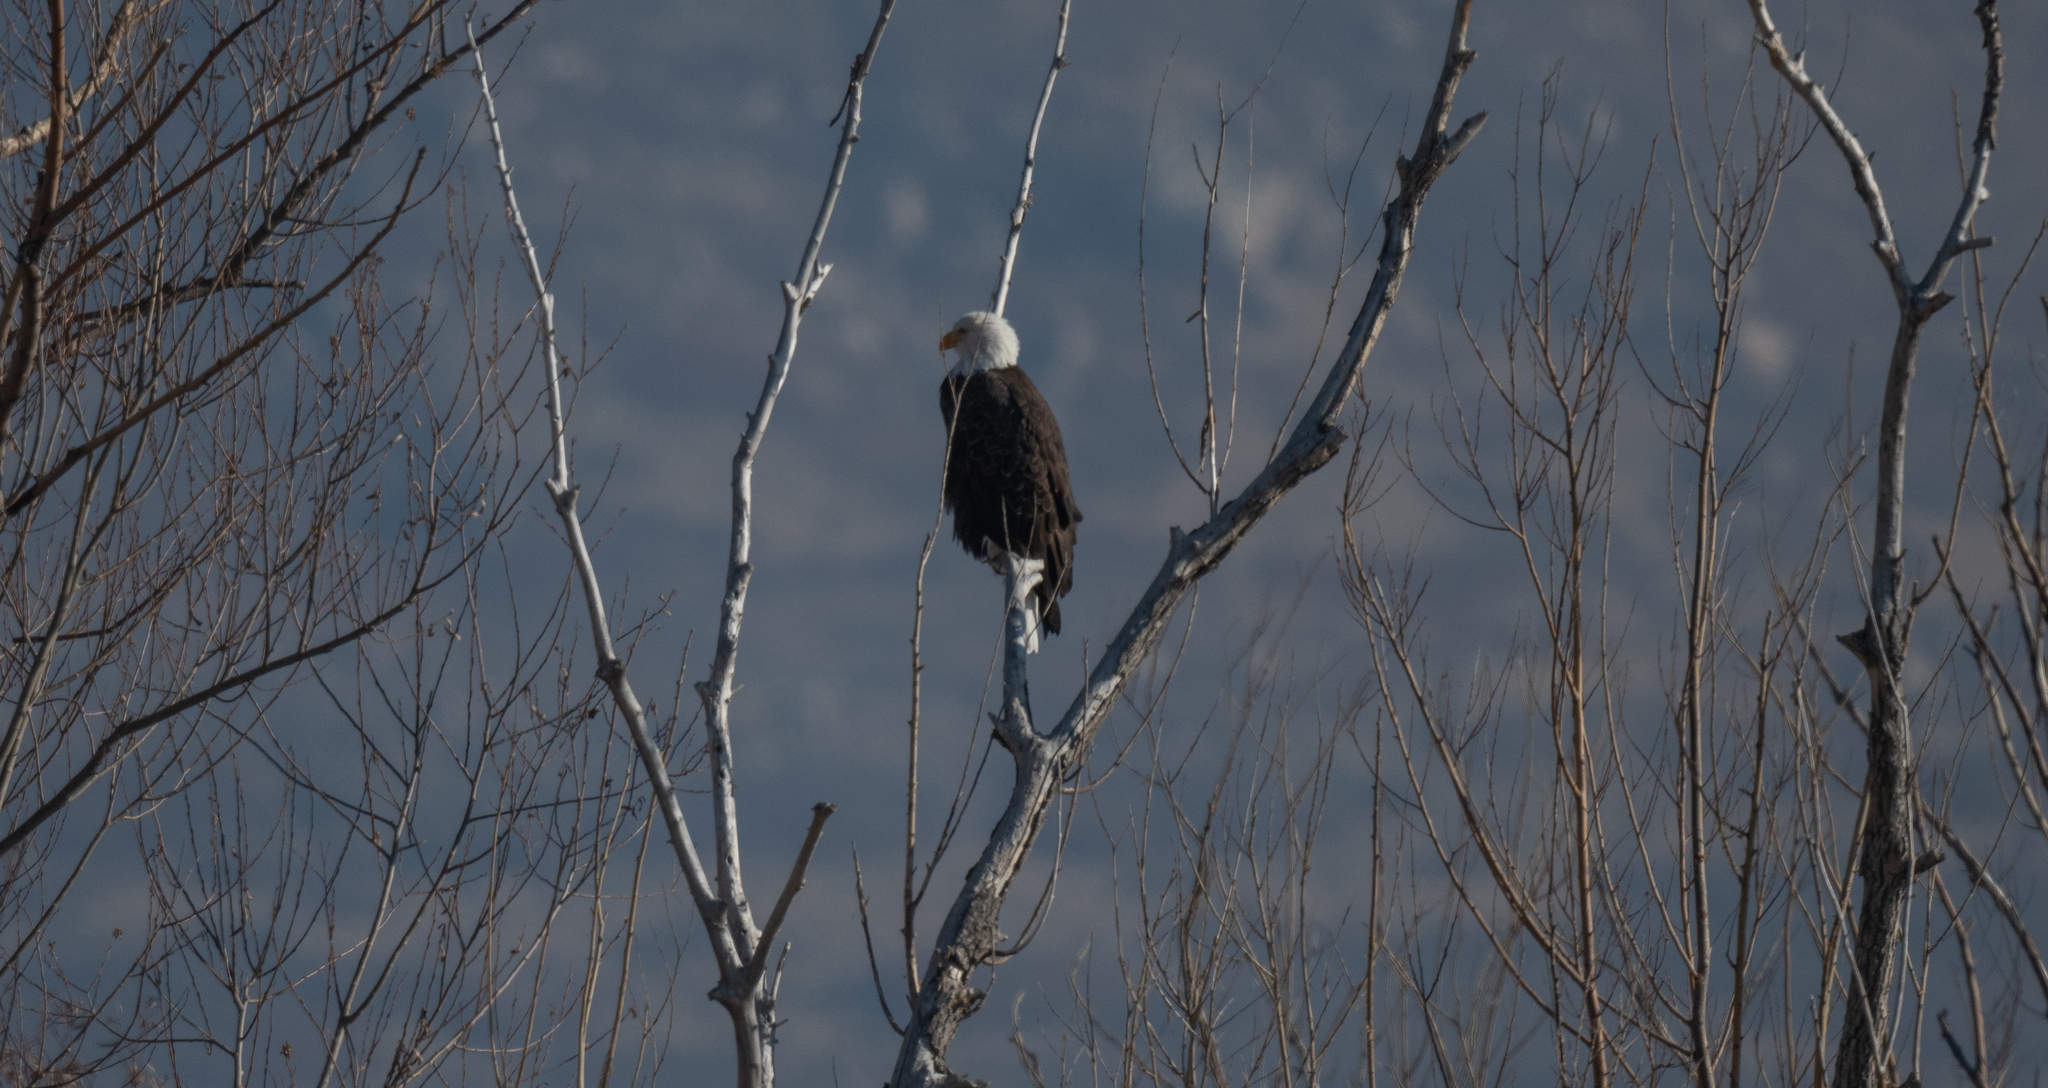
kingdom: Animalia
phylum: Chordata
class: Aves
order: Accipitriformes
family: Accipitridae
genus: Haliaeetus
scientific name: Haliaeetus leucocephalus
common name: Bald eagle
